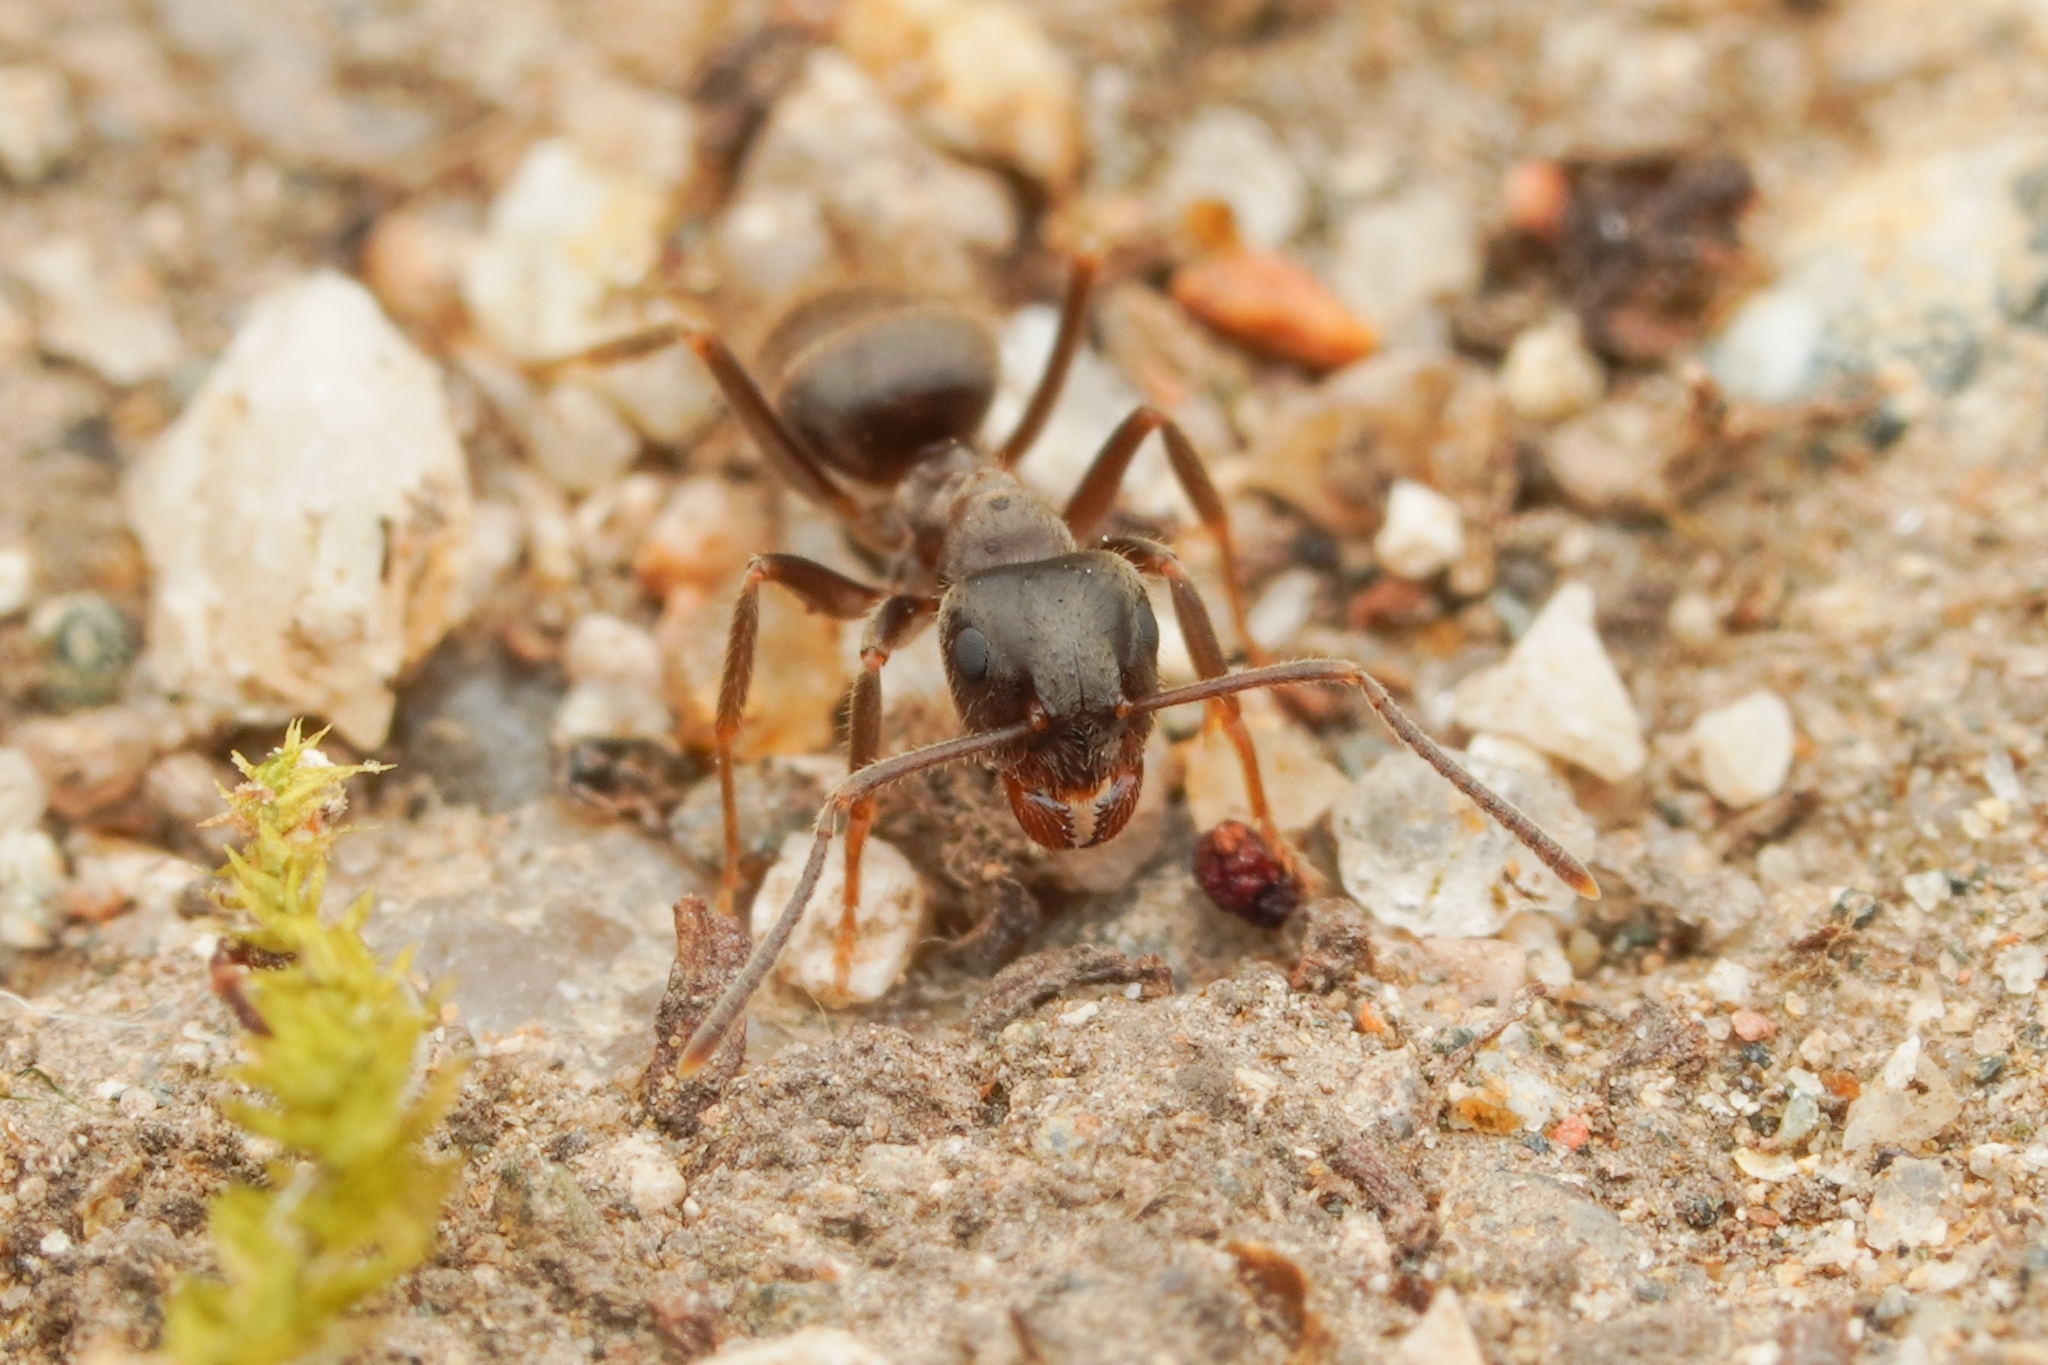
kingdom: Animalia
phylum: Arthropoda
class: Insecta
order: Hymenoptera
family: Formicidae
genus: Lasius
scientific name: Lasius japonicus
